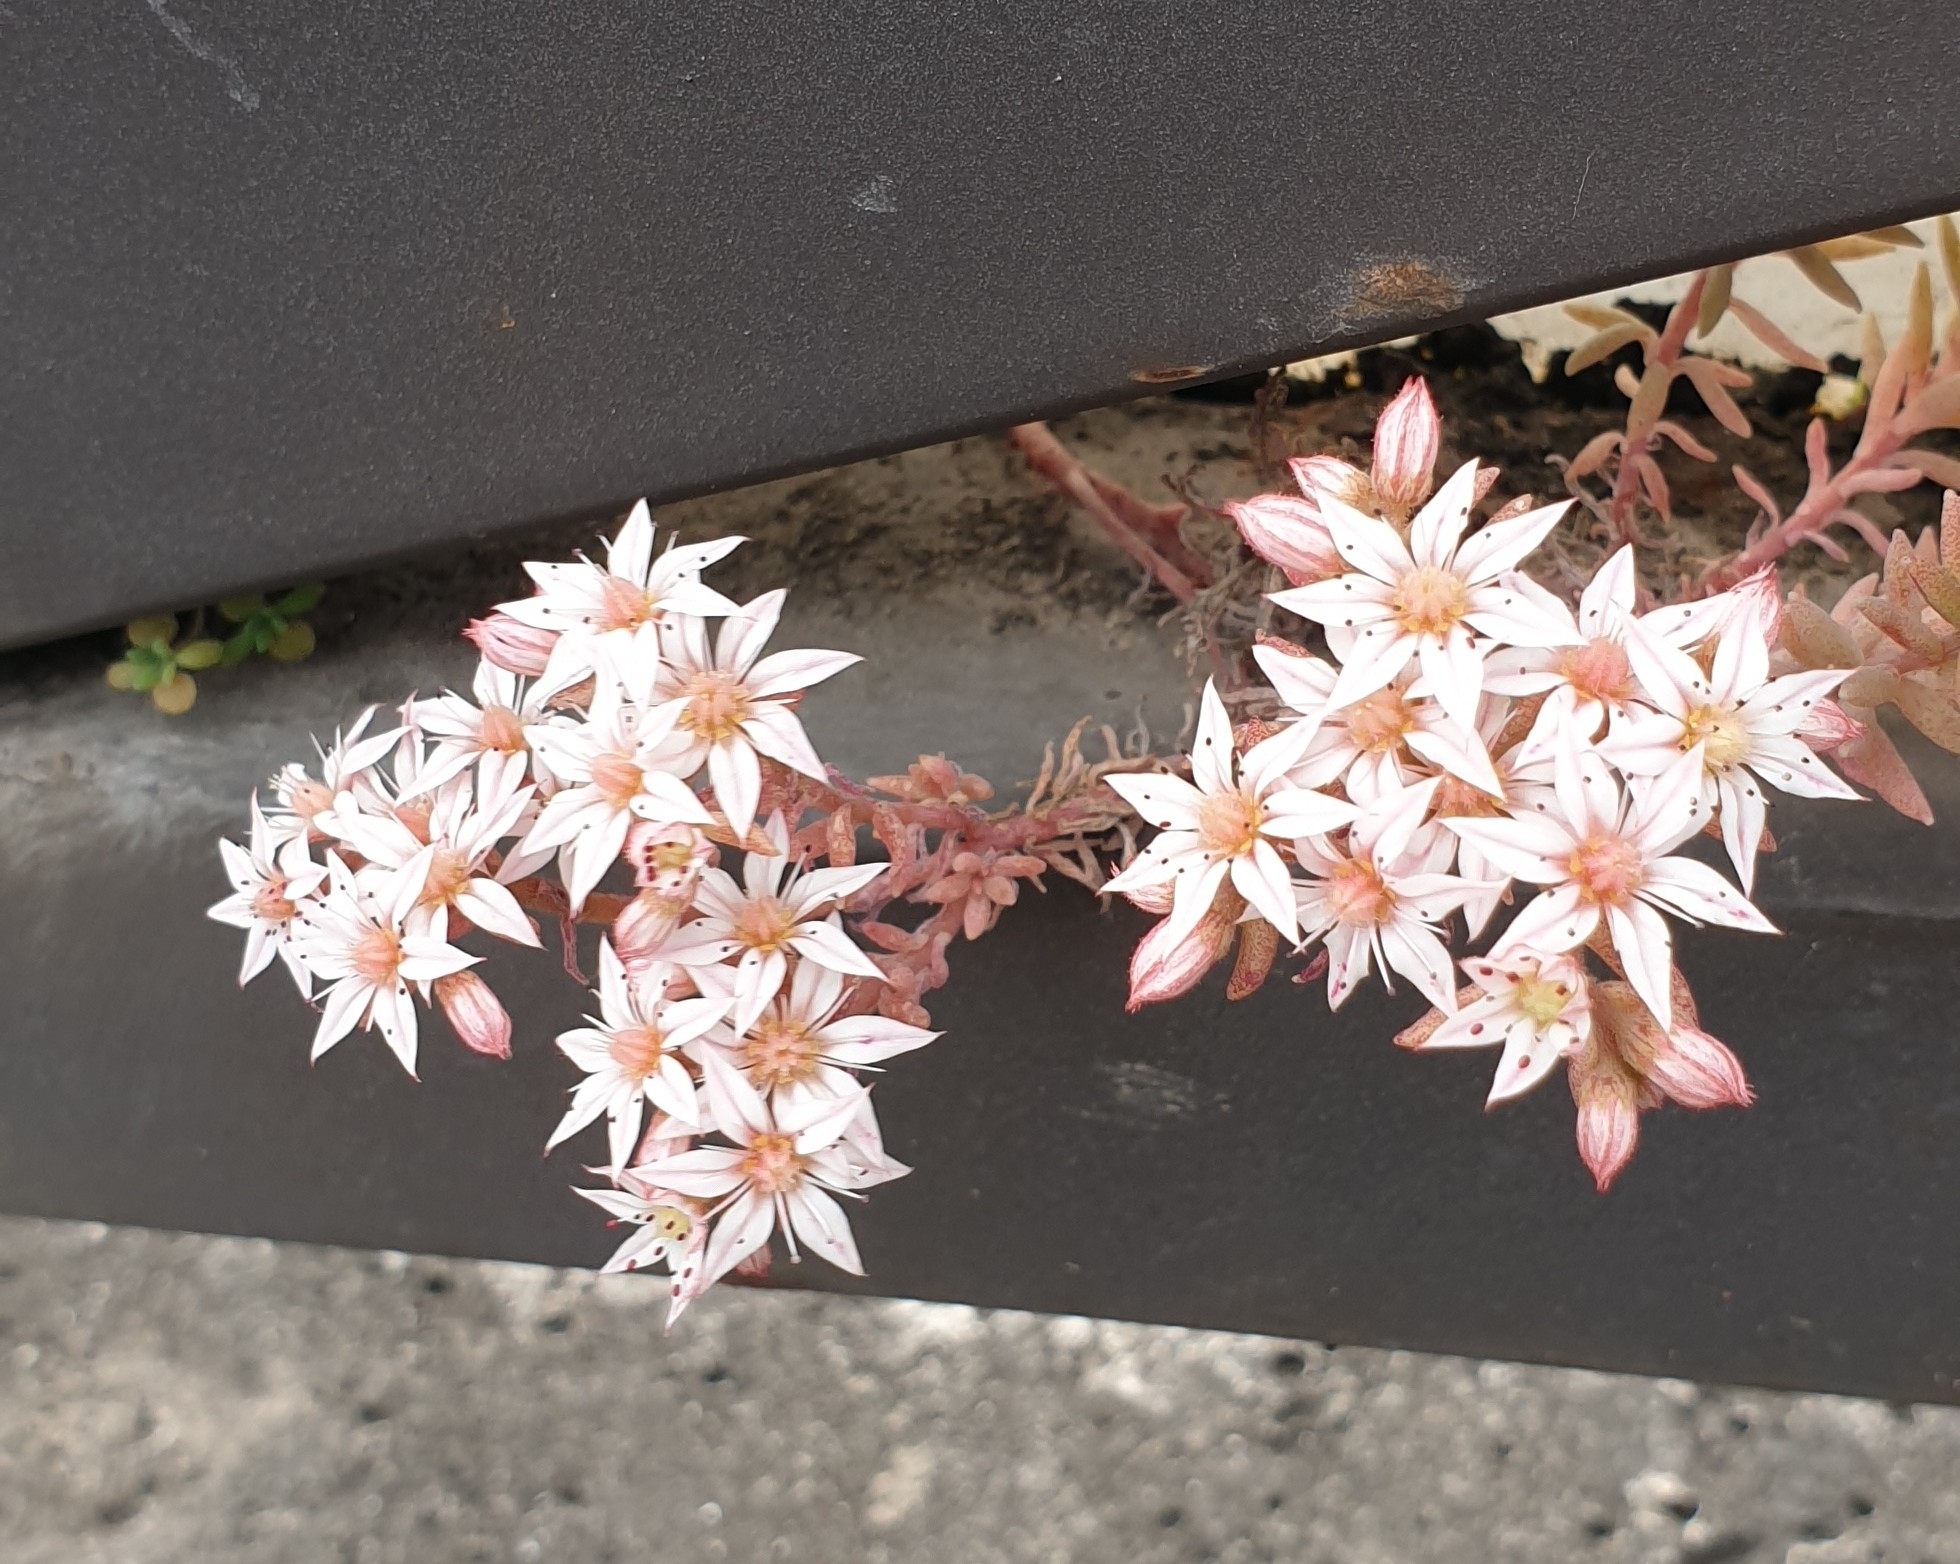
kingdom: Plantae
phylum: Tracheophyta
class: Magnoliopsida
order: Saxifragales
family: Crassulaceae
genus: Sedum
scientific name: Sedum hispanicum
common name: Spanish stonecrop
